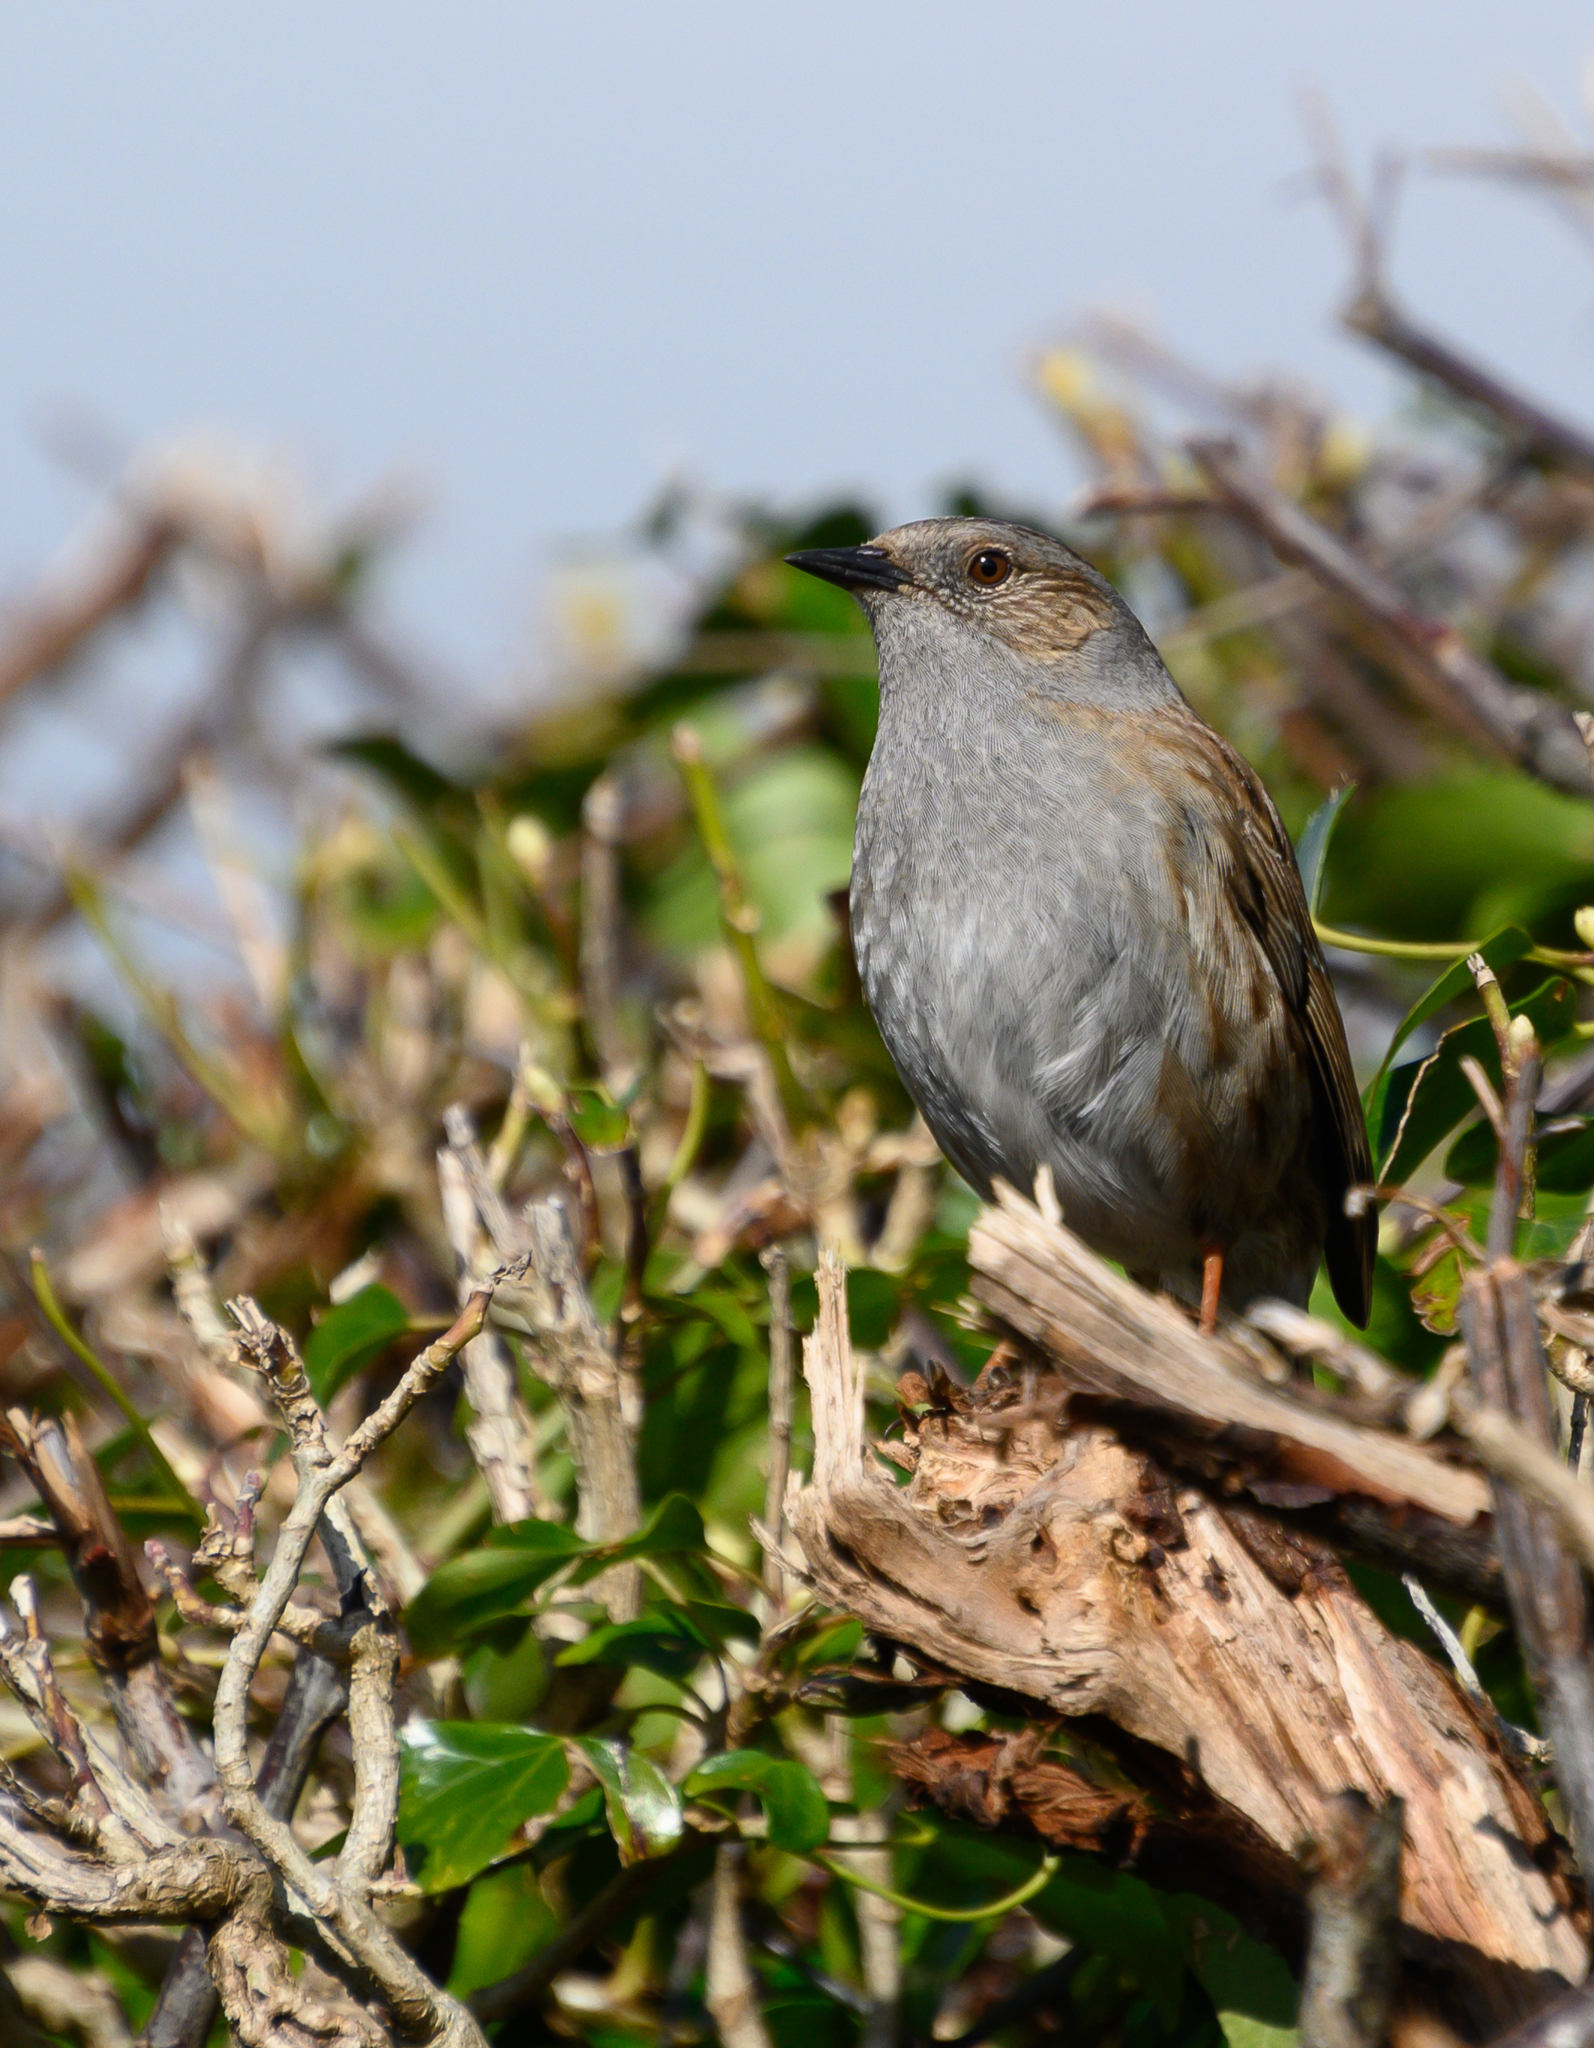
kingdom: Animalia
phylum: Chordata
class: Aves
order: Passeriformes
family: Prunellidae
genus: Prunella
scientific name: Prunella modularis
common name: Dunnock
